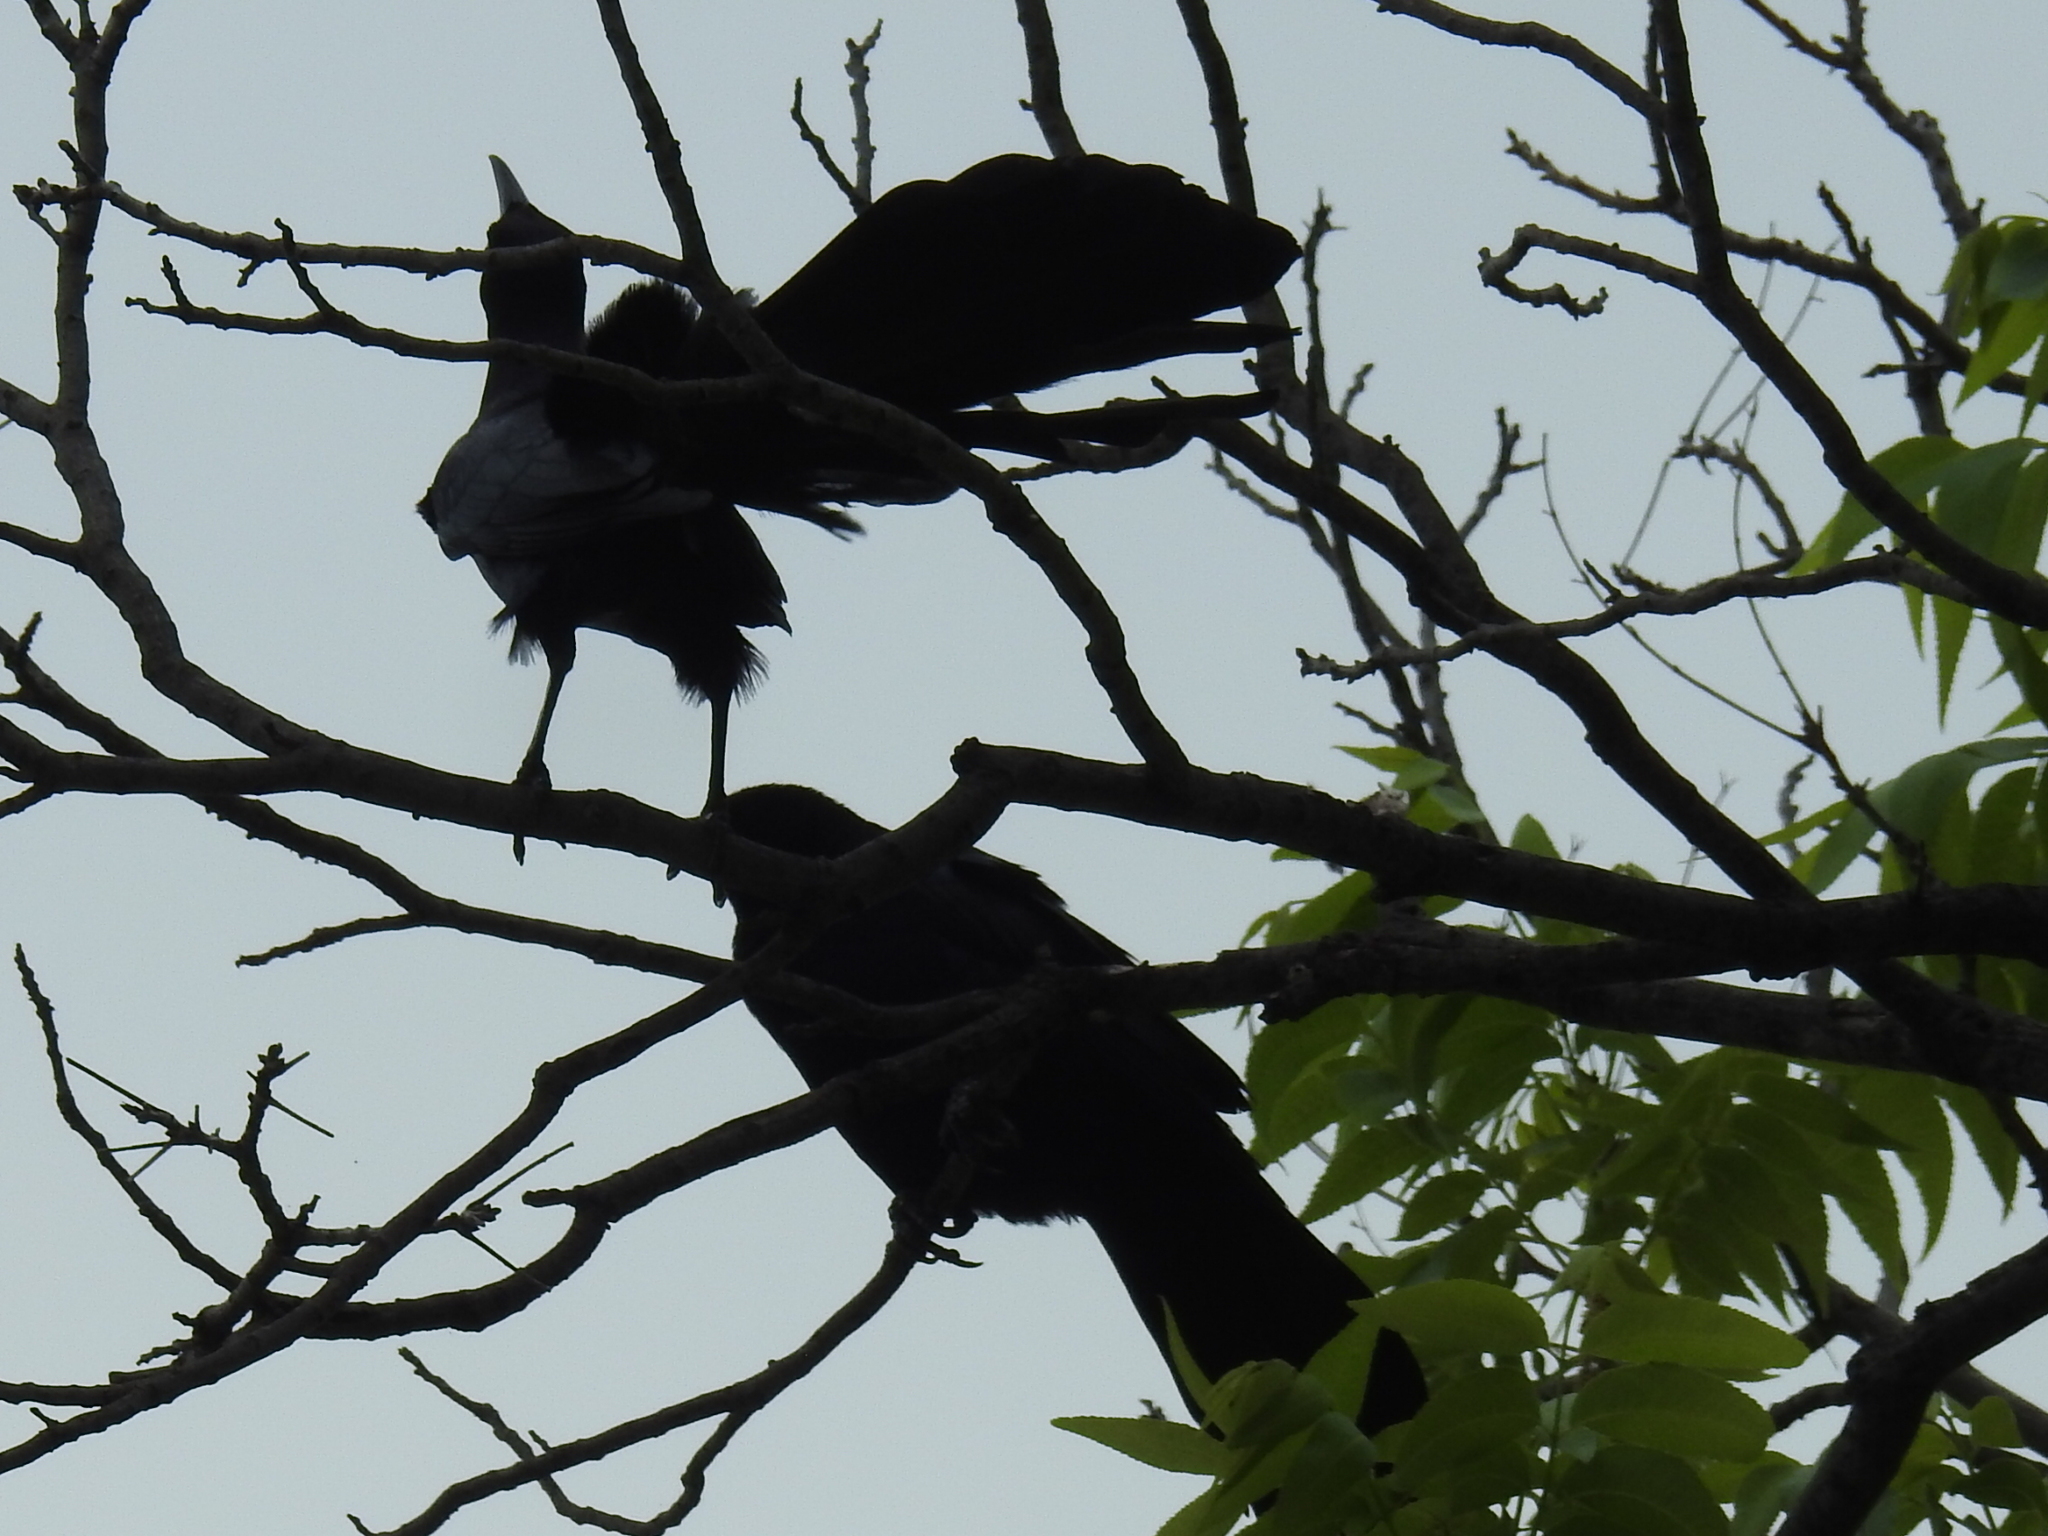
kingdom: Animalia
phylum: Chordata
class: Aves
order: Passeriformes
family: Icteridae
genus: Quiscalus
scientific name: Quiscalus mexicanus
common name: Great-tailed grackle
